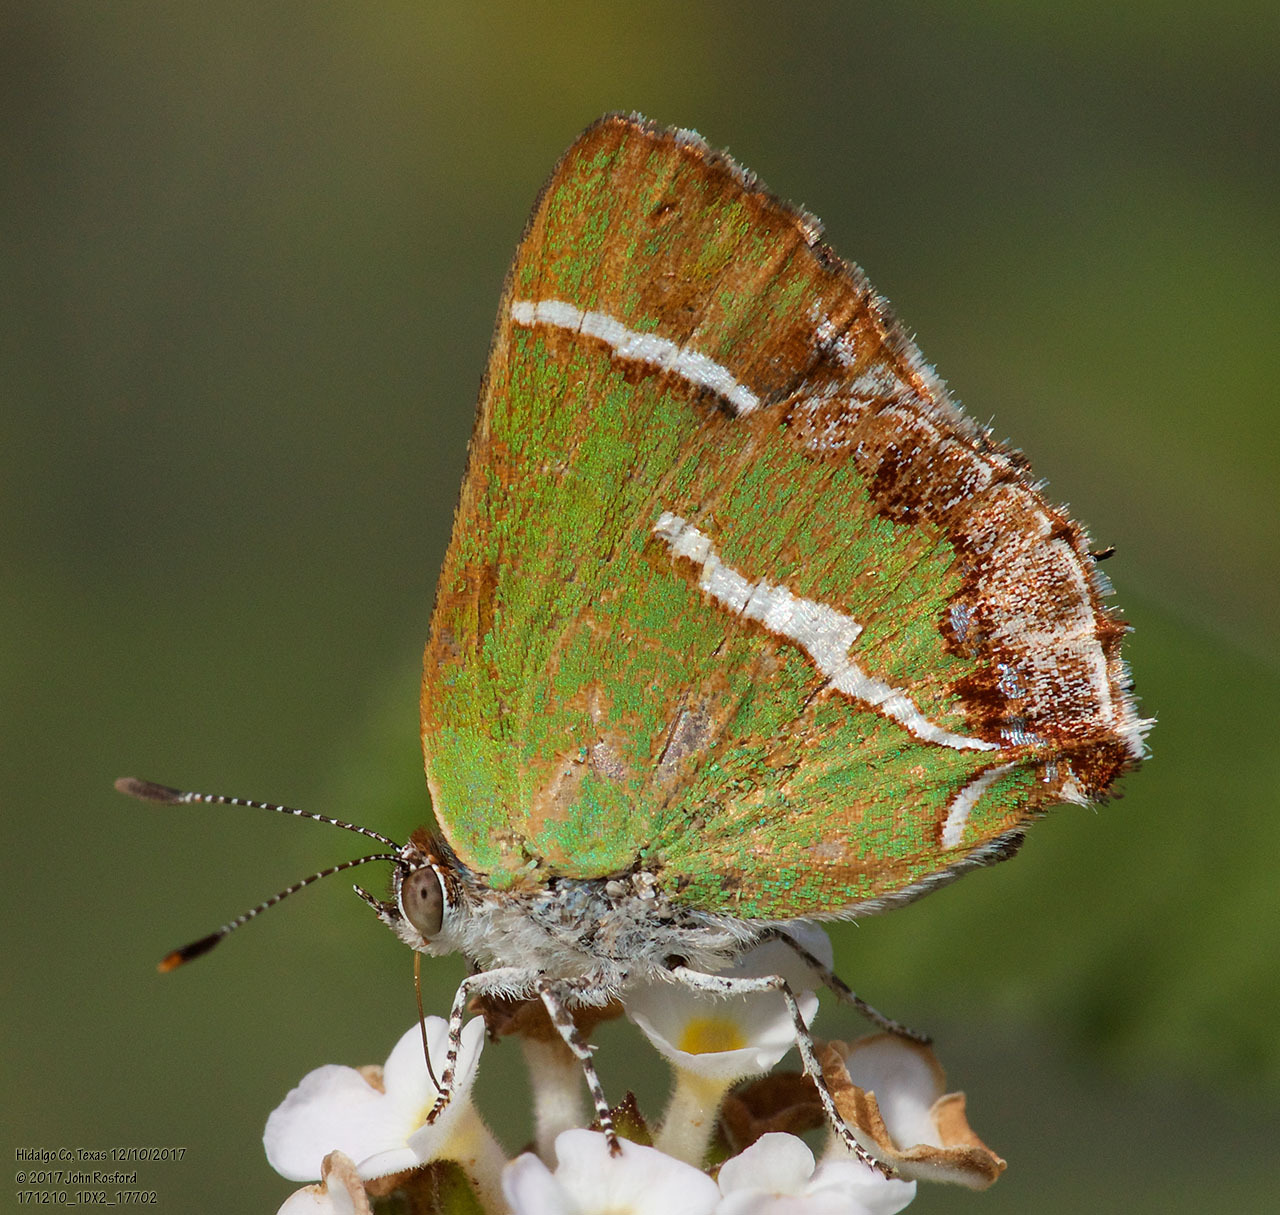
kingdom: Animalia
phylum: Arthropoda
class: Insecta
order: Lepidoptera
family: Lycaenidae
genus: Chlorostrymon
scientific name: Chlorostrymon simaethis
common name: Silver-banded hairstreak
